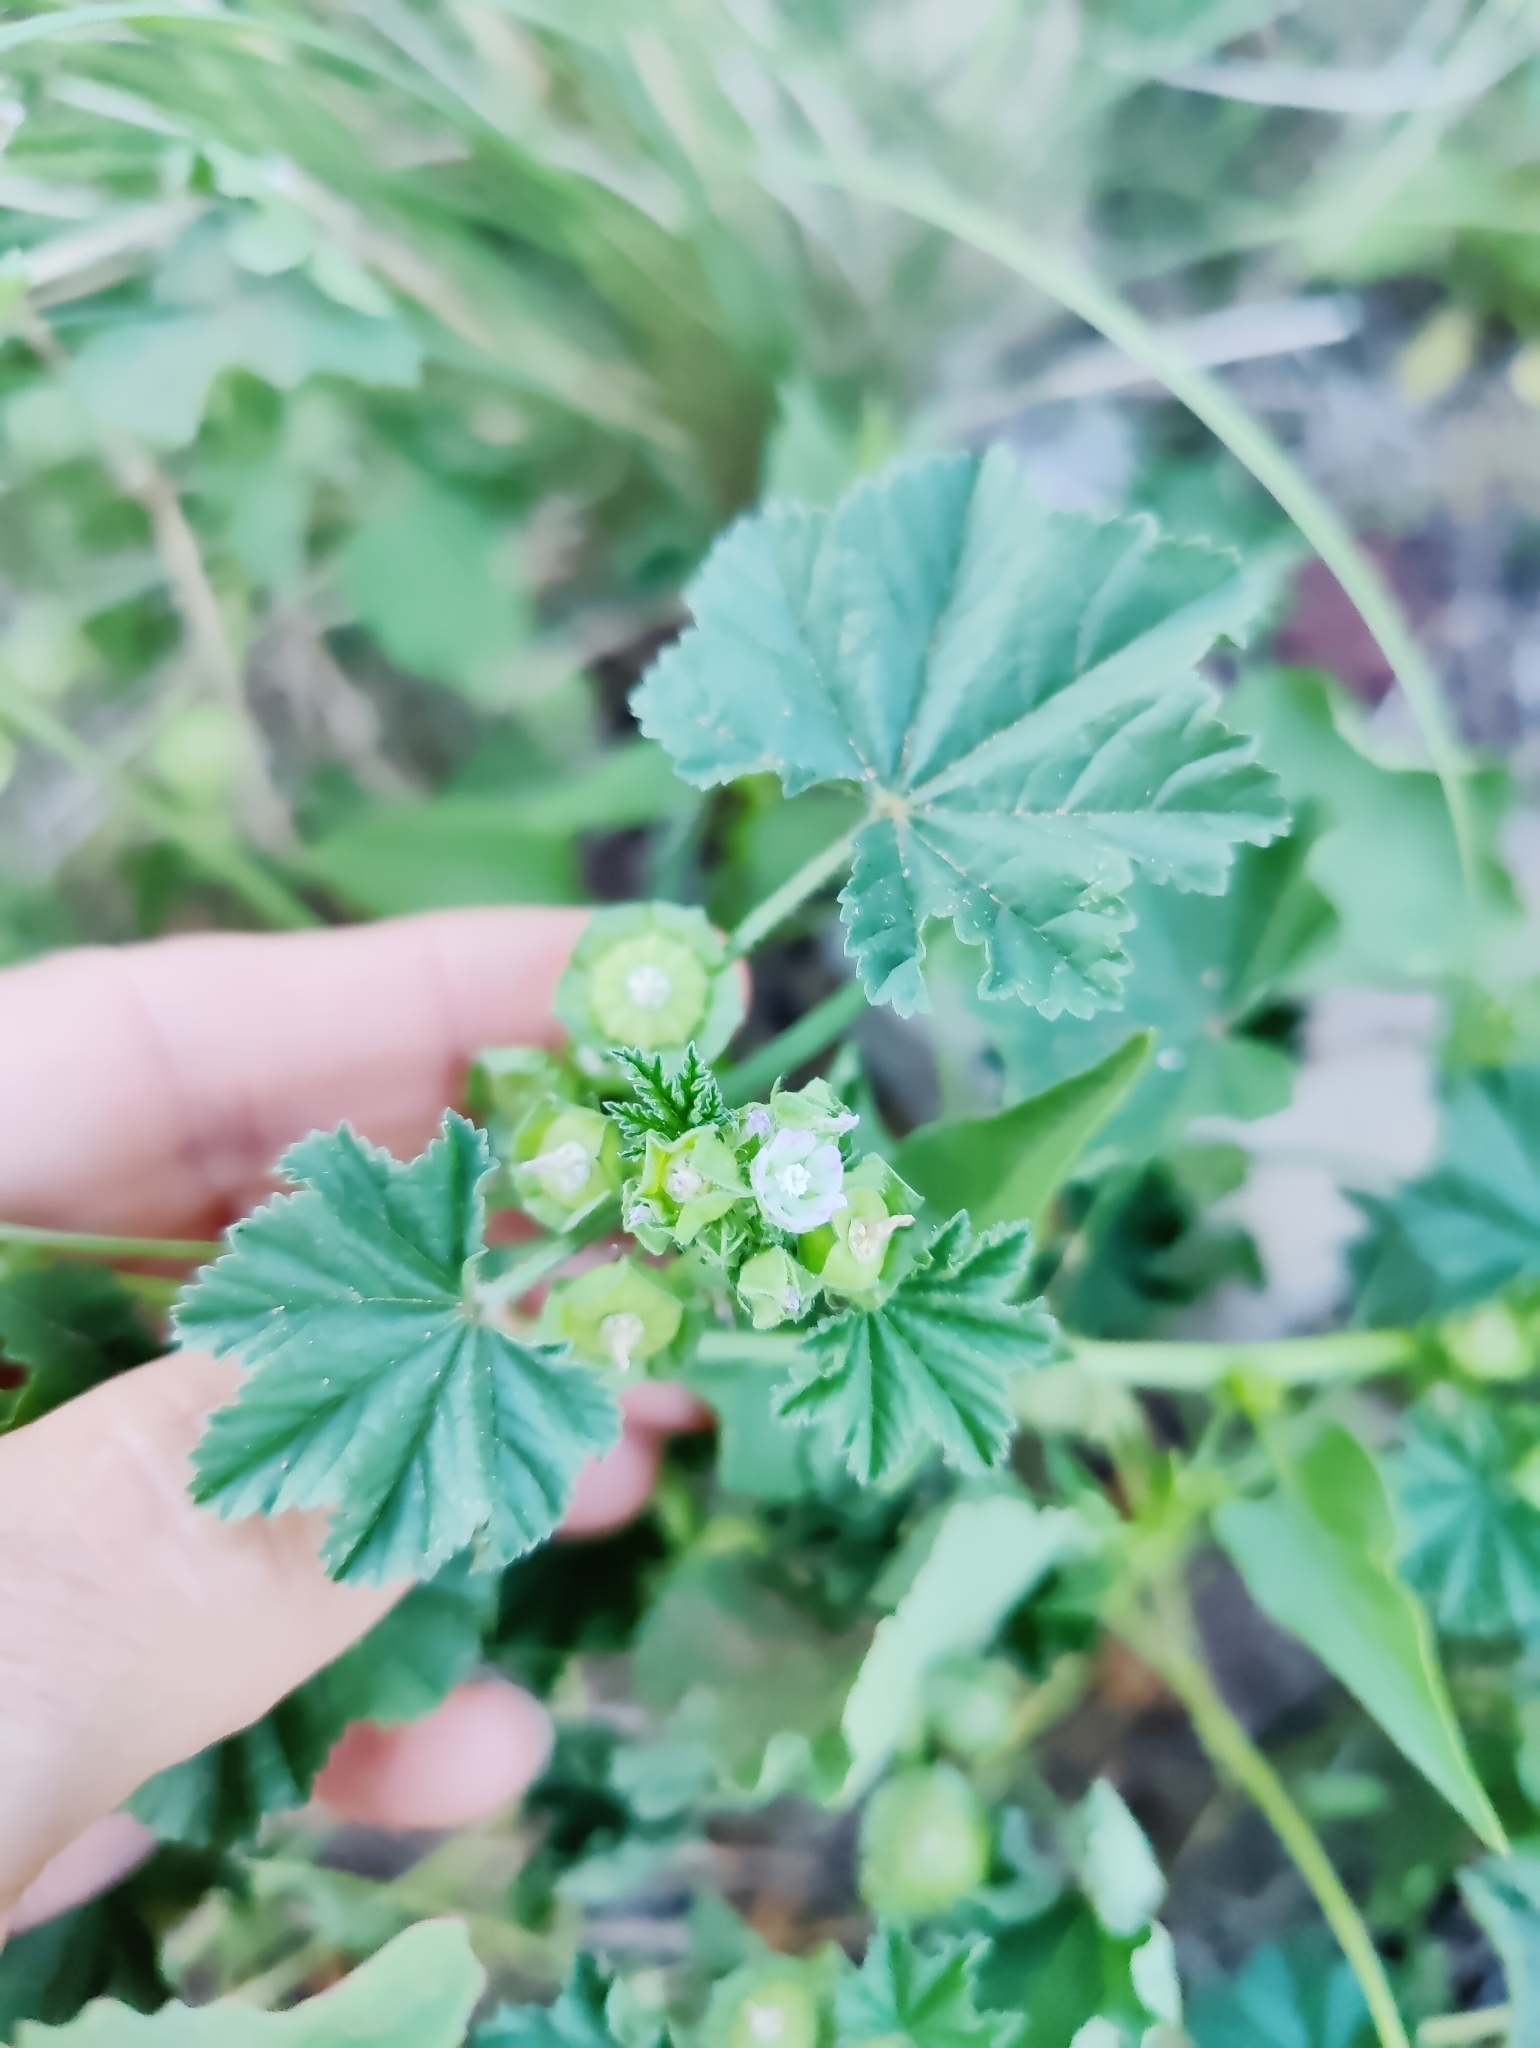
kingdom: Plantae
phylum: Tracheophyta
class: Magnoliopsida
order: Malvales
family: Malvaceae
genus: Malva
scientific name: Malva parviflora
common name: Least mallow
